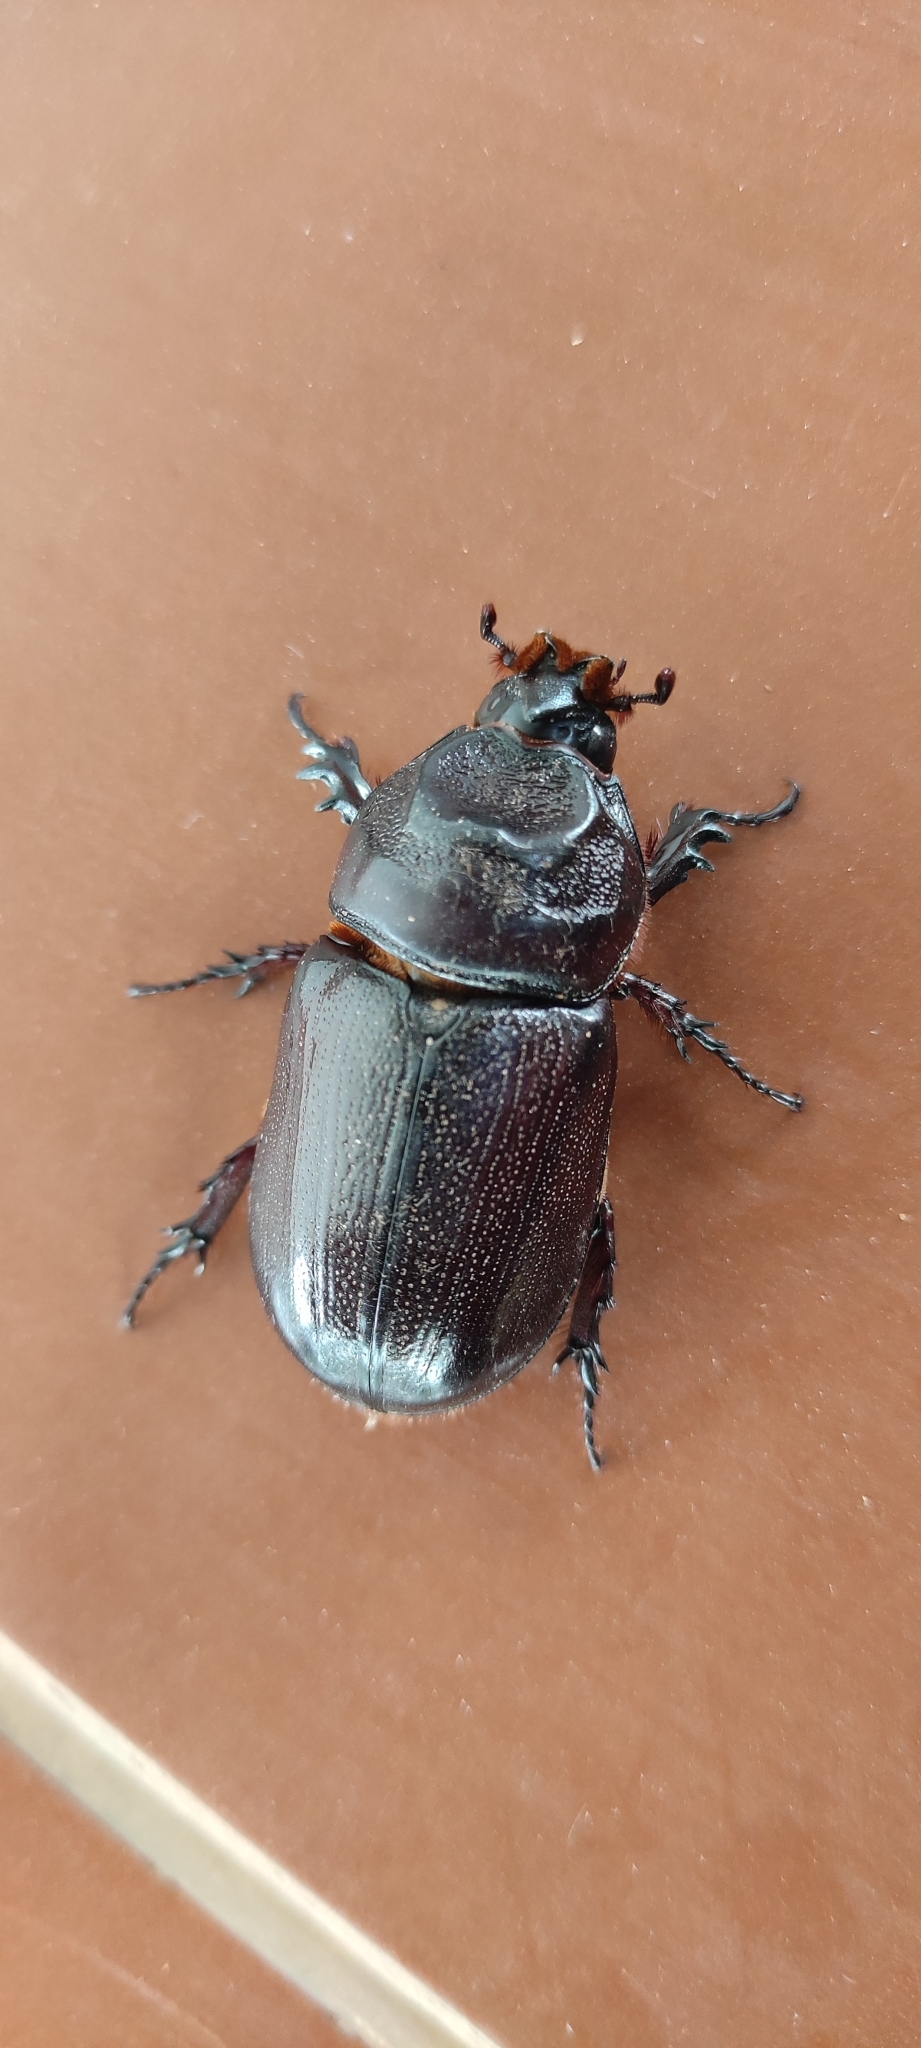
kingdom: Animalia
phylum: Arthropoda
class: Insecta
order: Coleoptera
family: Scarabaeidae
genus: Oryctes
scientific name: Oryctes rhinoceros
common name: Coconut rhinoceros beetle
